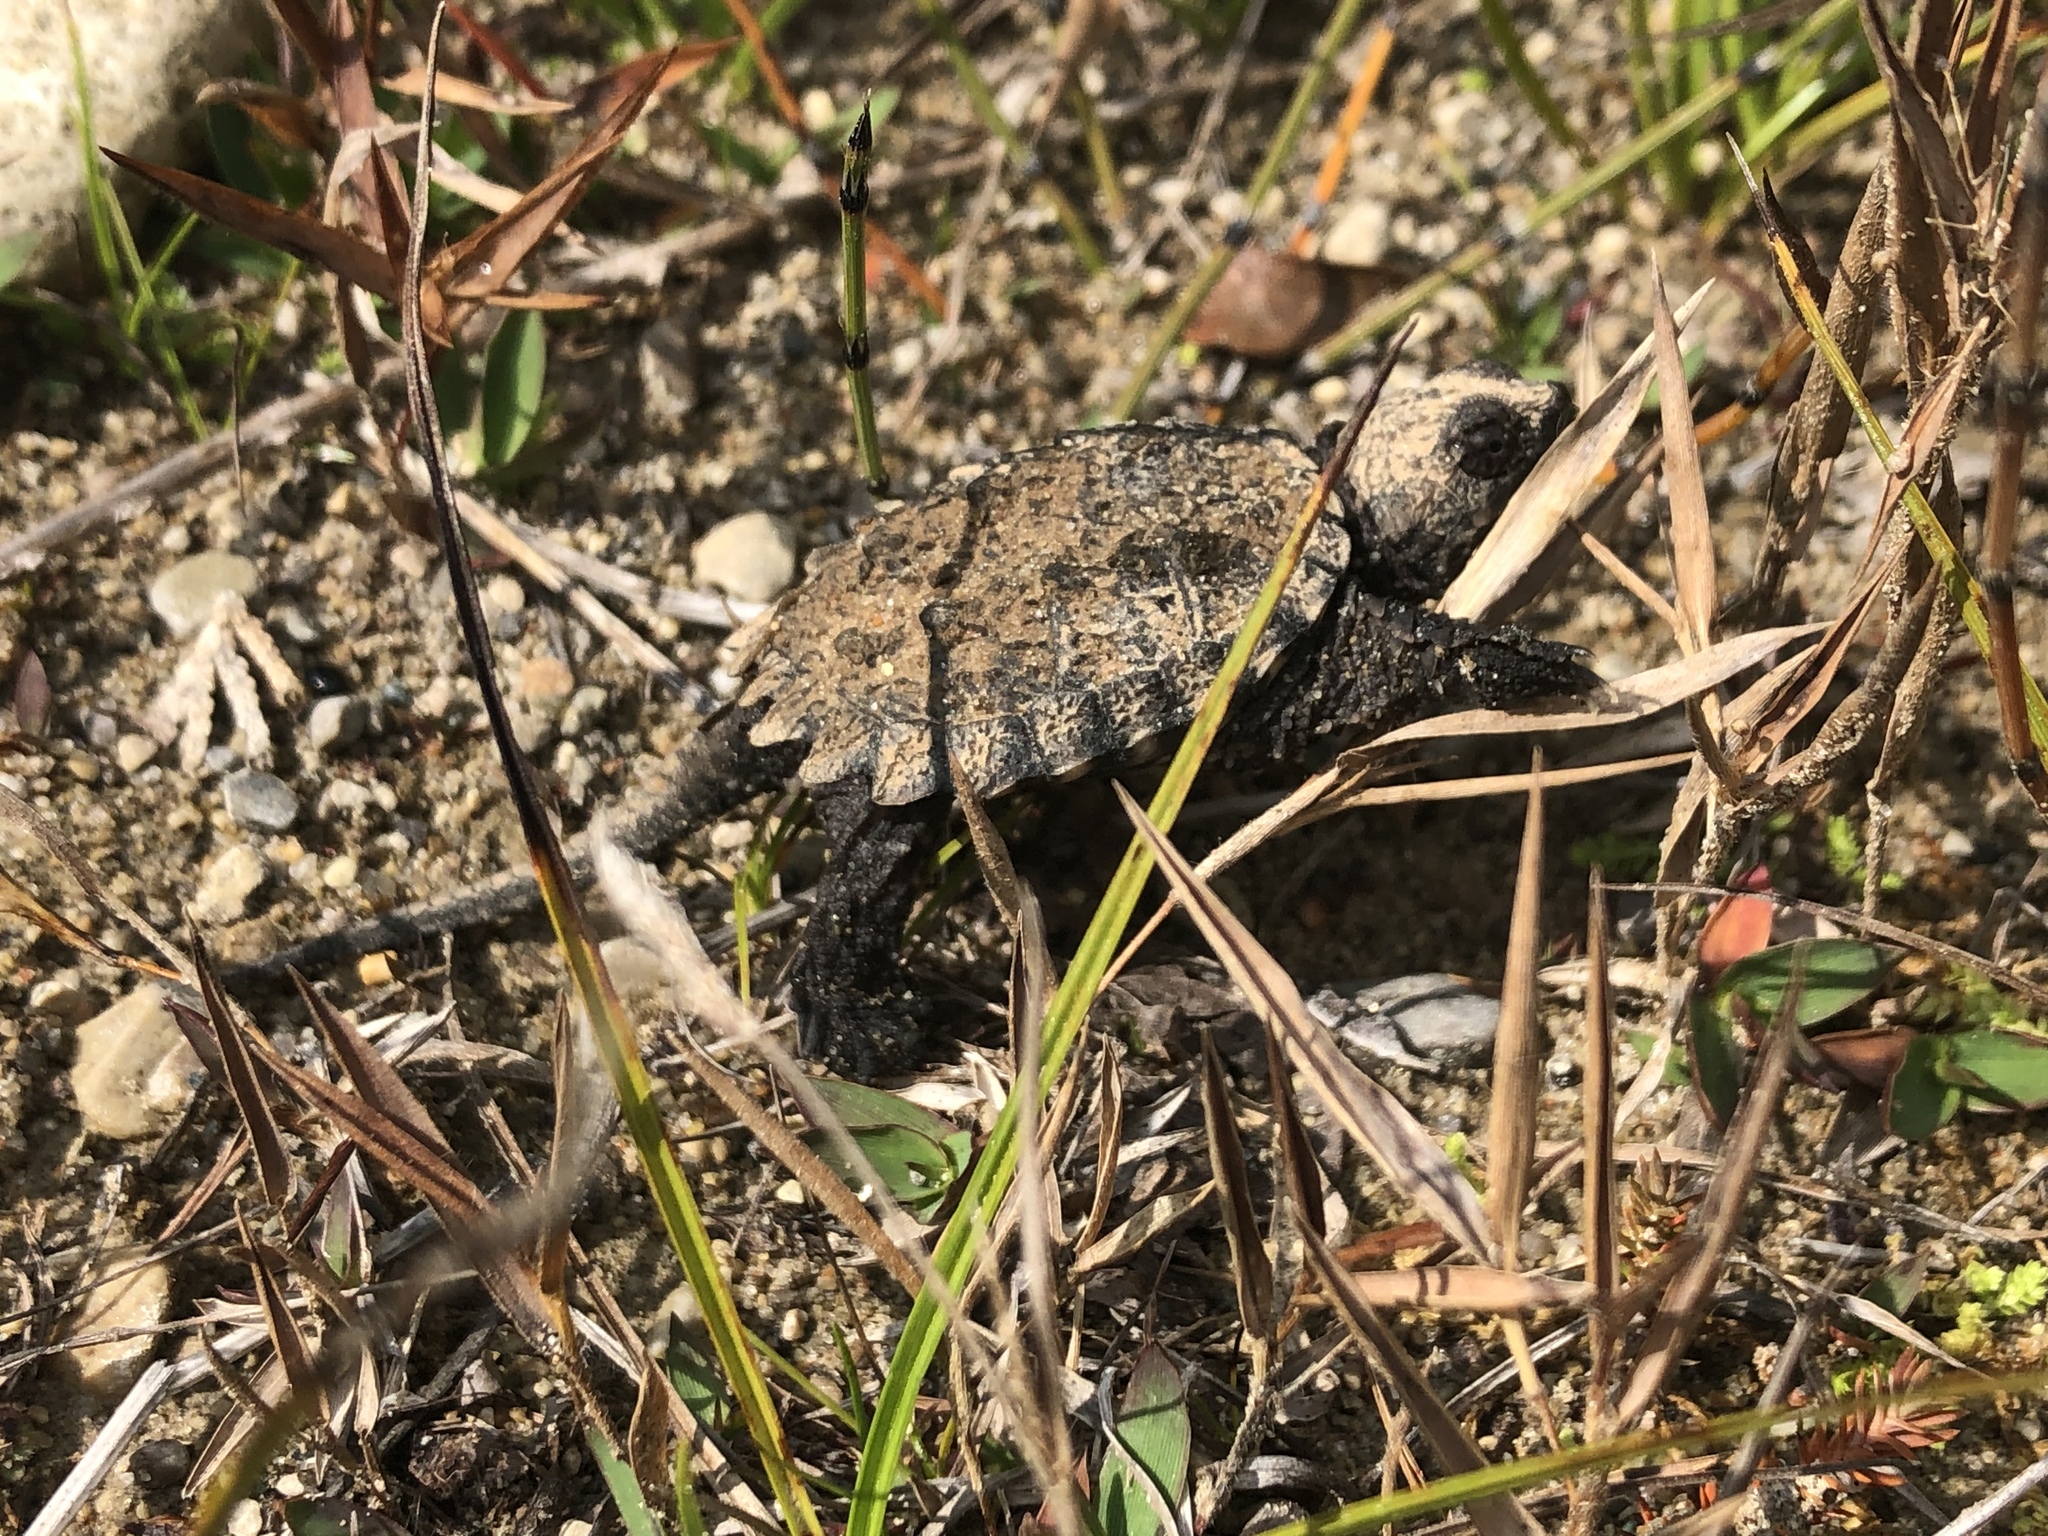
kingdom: Animalia
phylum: Chordata
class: Testudines
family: Chelydridae
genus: Chelydra
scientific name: Chelydra serpentina
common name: Common snapping turtle
